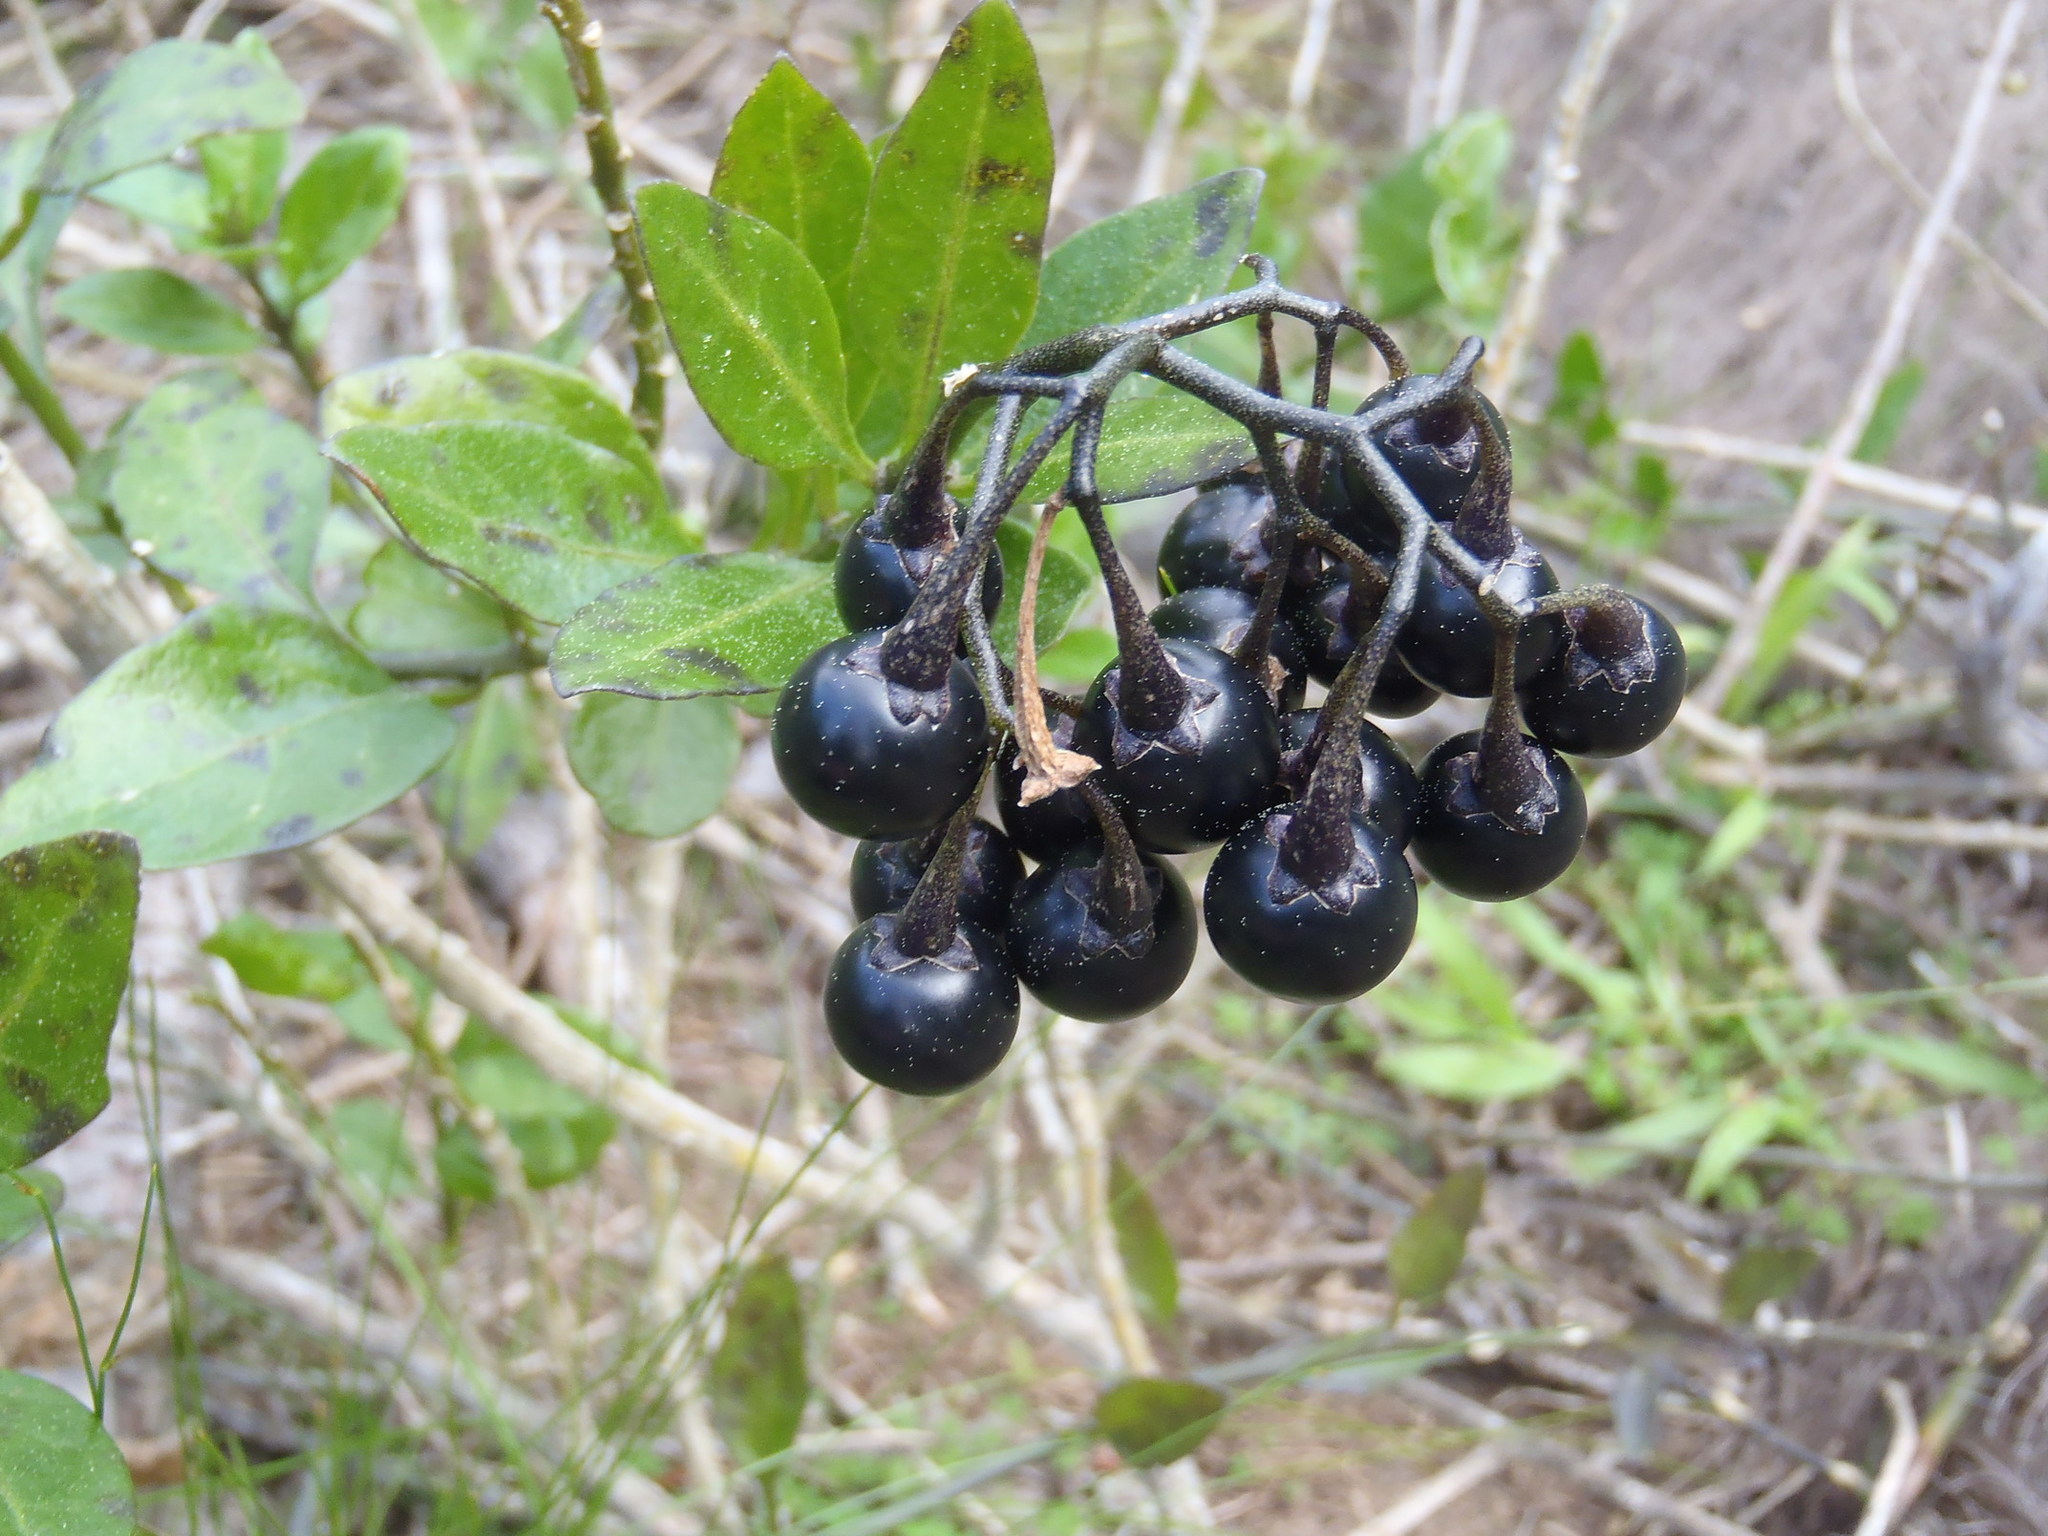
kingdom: Plantae
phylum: Tracheophyta
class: Magnoliopsida
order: Solanales
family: Solanaceae
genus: Solanum
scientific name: Solanum africanum
